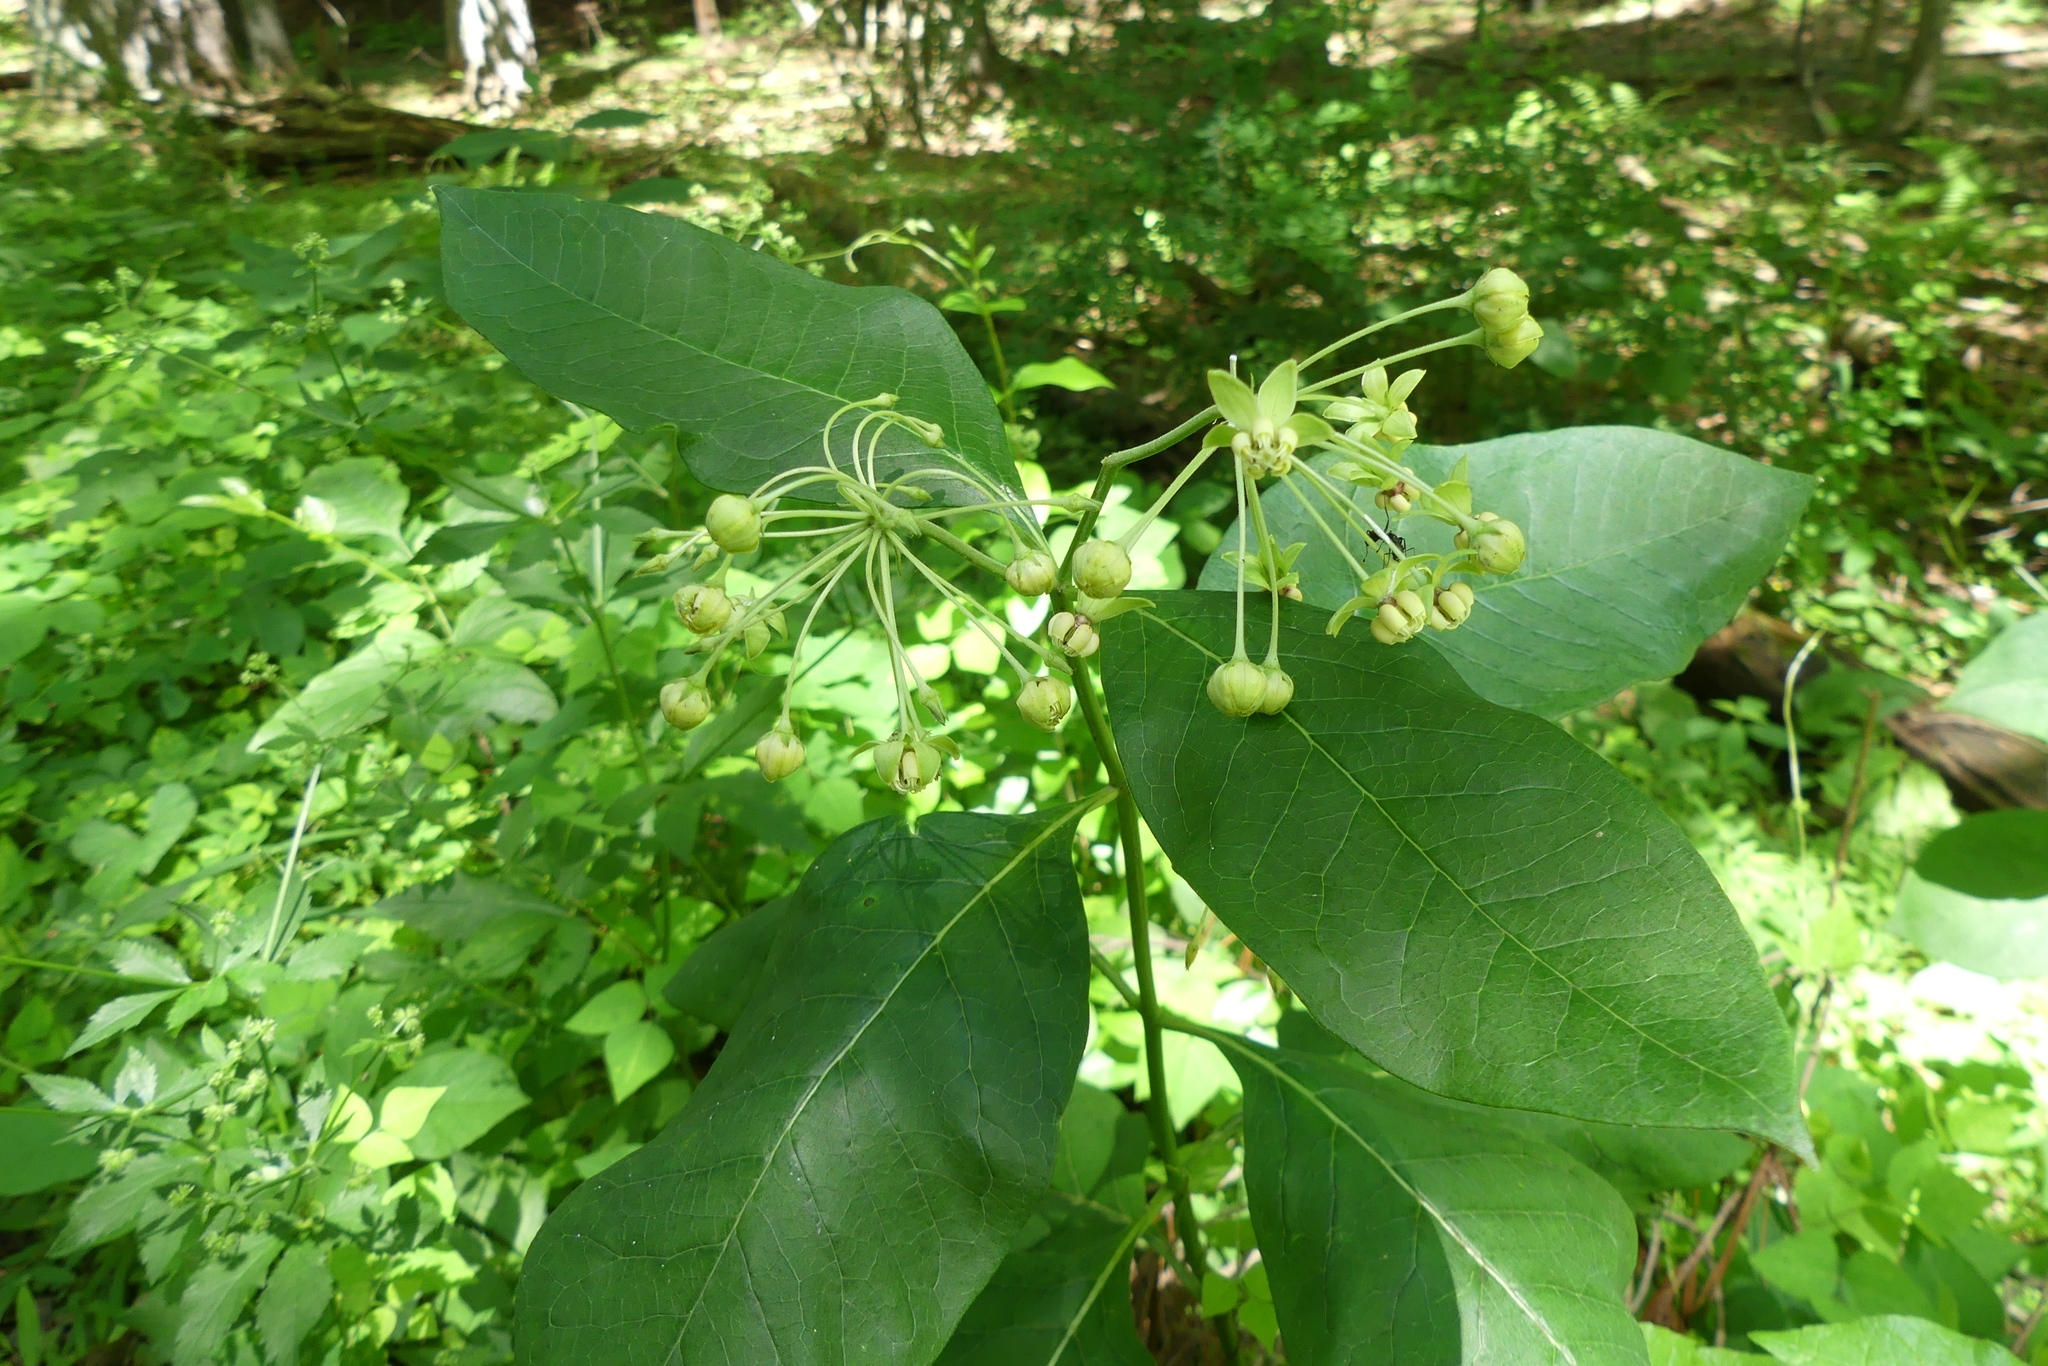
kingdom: Plantae
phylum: Tracheophyta
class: Magnoliopsida
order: Gentianales
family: Apocynaceae
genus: Asclepias
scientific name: Asclepias exaltata
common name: Poke milkweed
